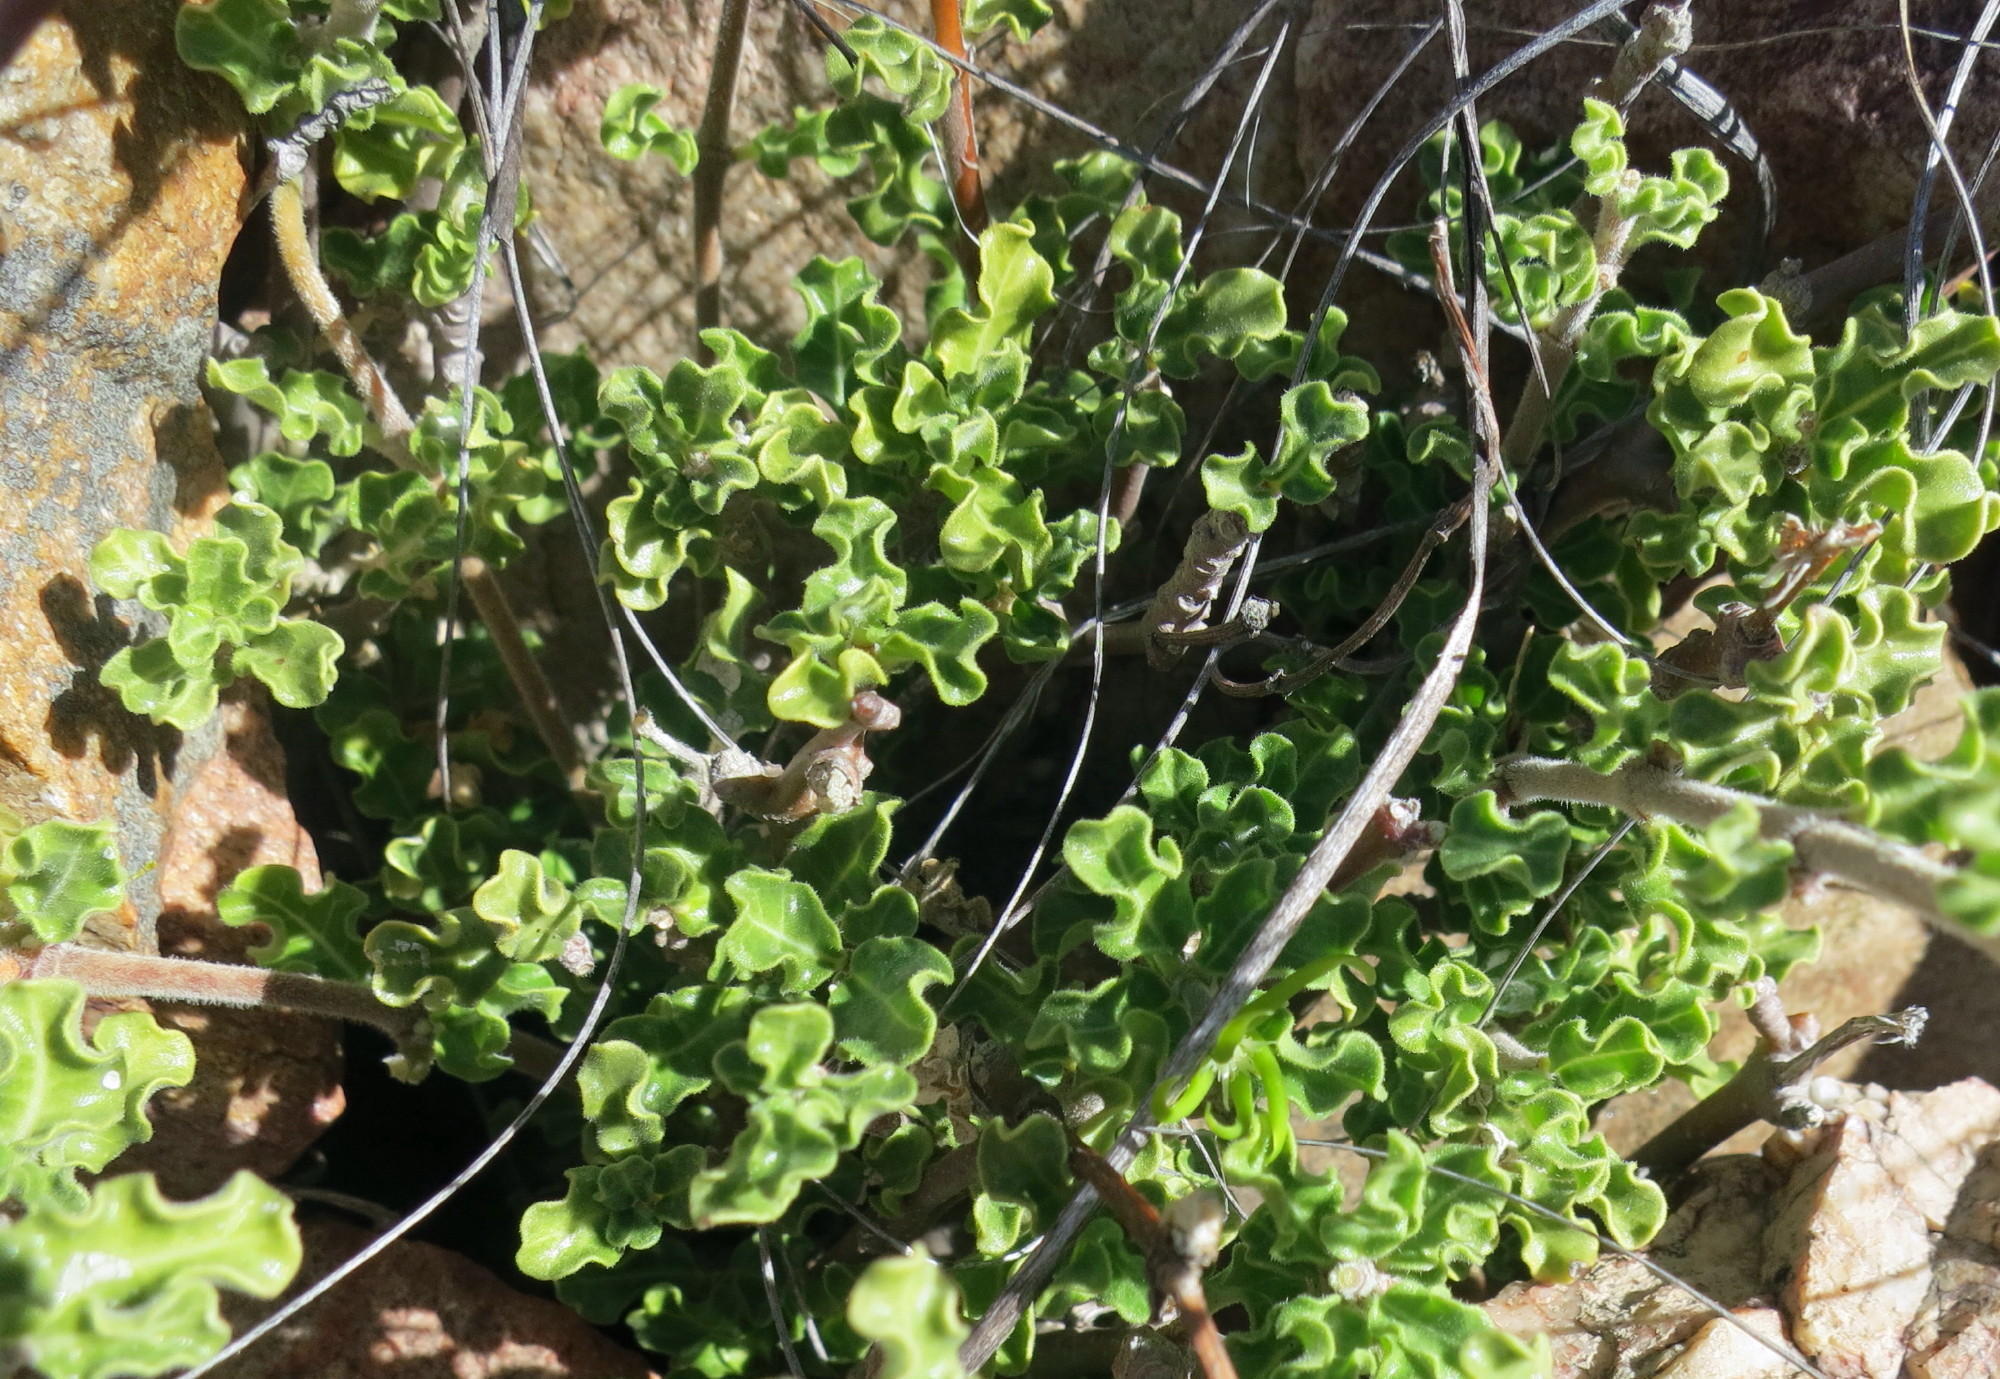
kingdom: Plantae
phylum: Tracheophyta
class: Magnoliopsida
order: Gentianales
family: Apocynaceae
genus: Fockea
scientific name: Fockea capensis
